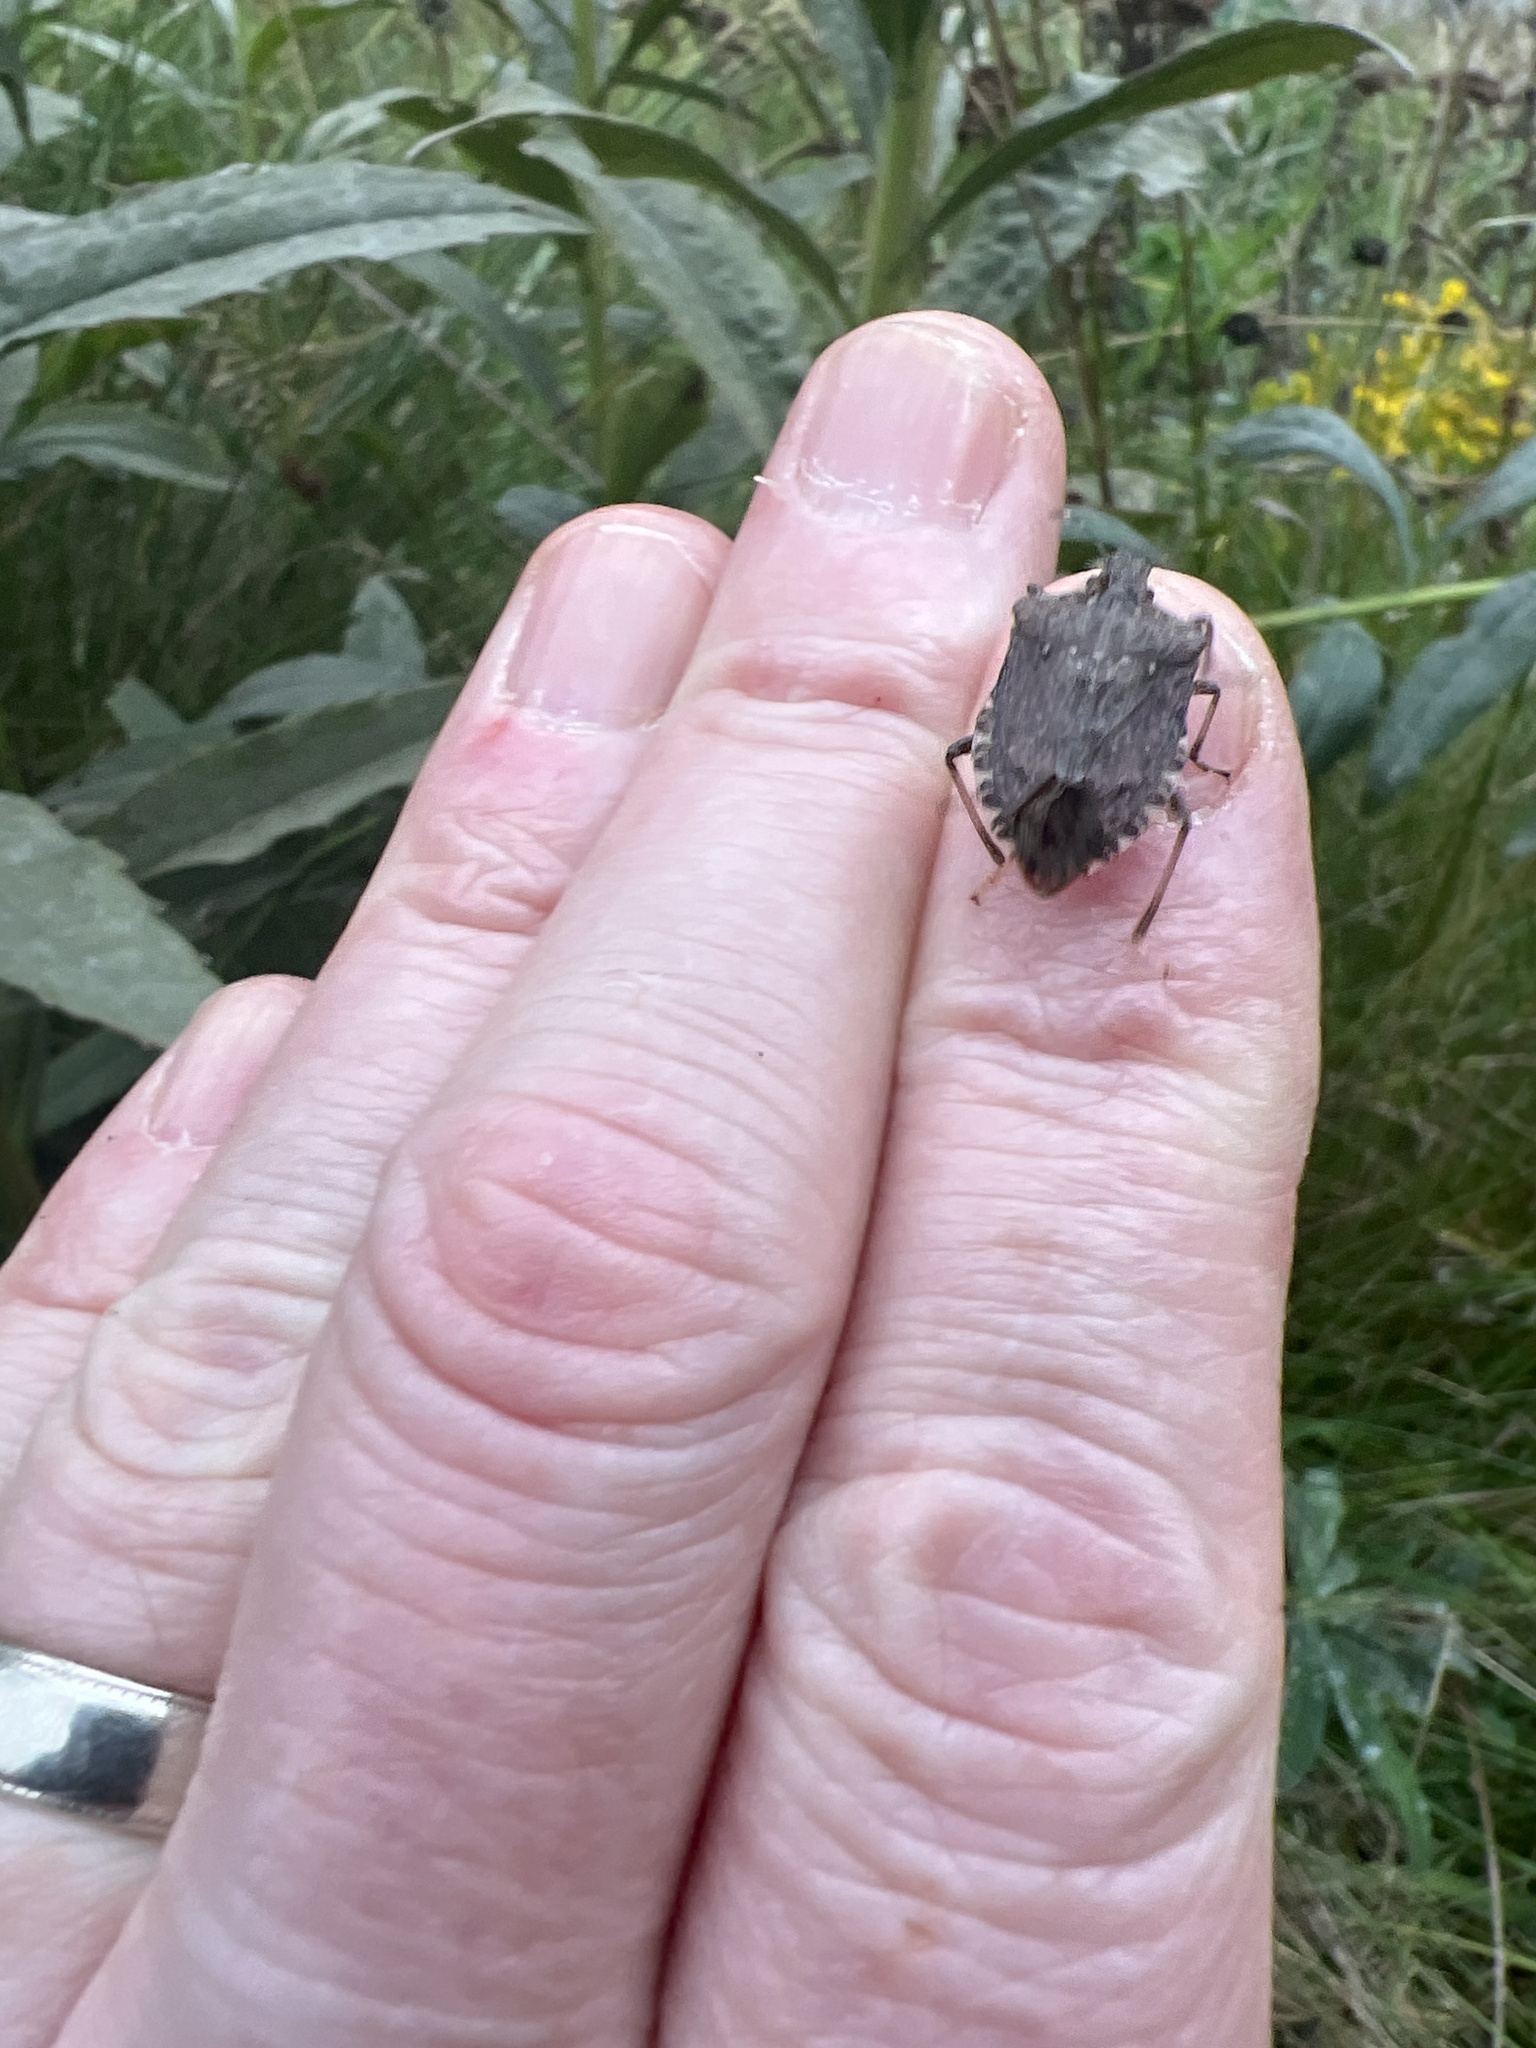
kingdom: Animalia
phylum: Arthropoda
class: Insecta
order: Hemiptera
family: Pentatomidae
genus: Halyomorpha
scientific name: Halyomorpha halys
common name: Brown marmorated stink bug
